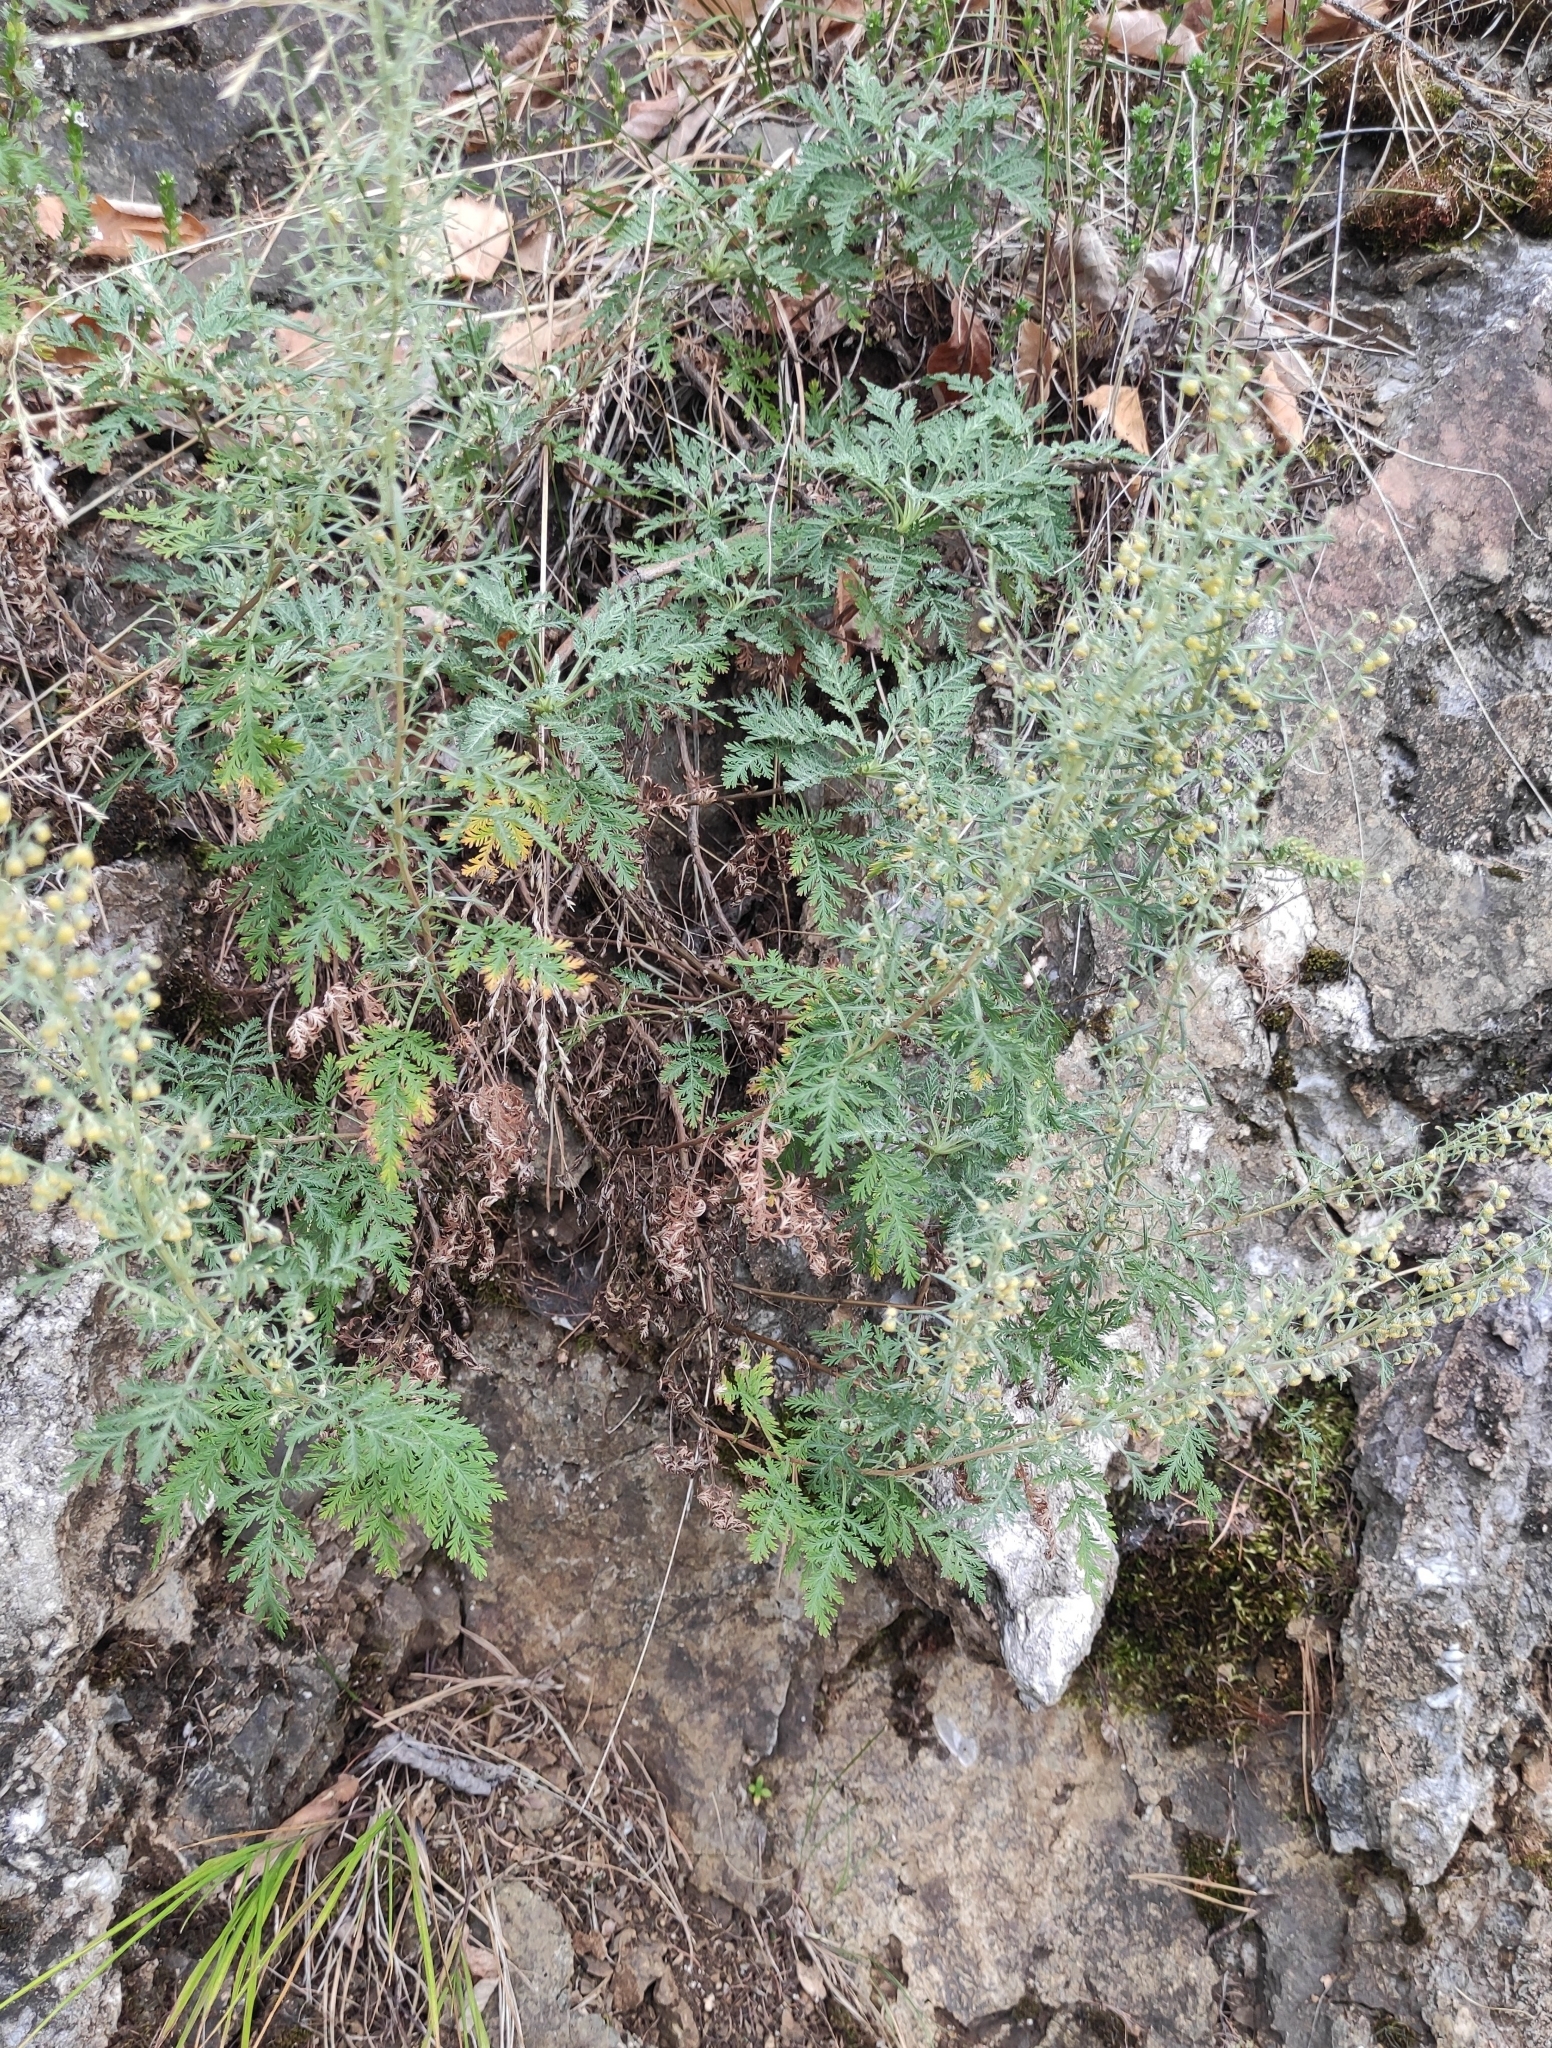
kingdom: Plantae
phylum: Tracheophyta
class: Magnoliopsida
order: Asterales
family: Asteraceae
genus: Artemisia
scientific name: Artemisia gmelinii
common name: Gmelin's wormwood
